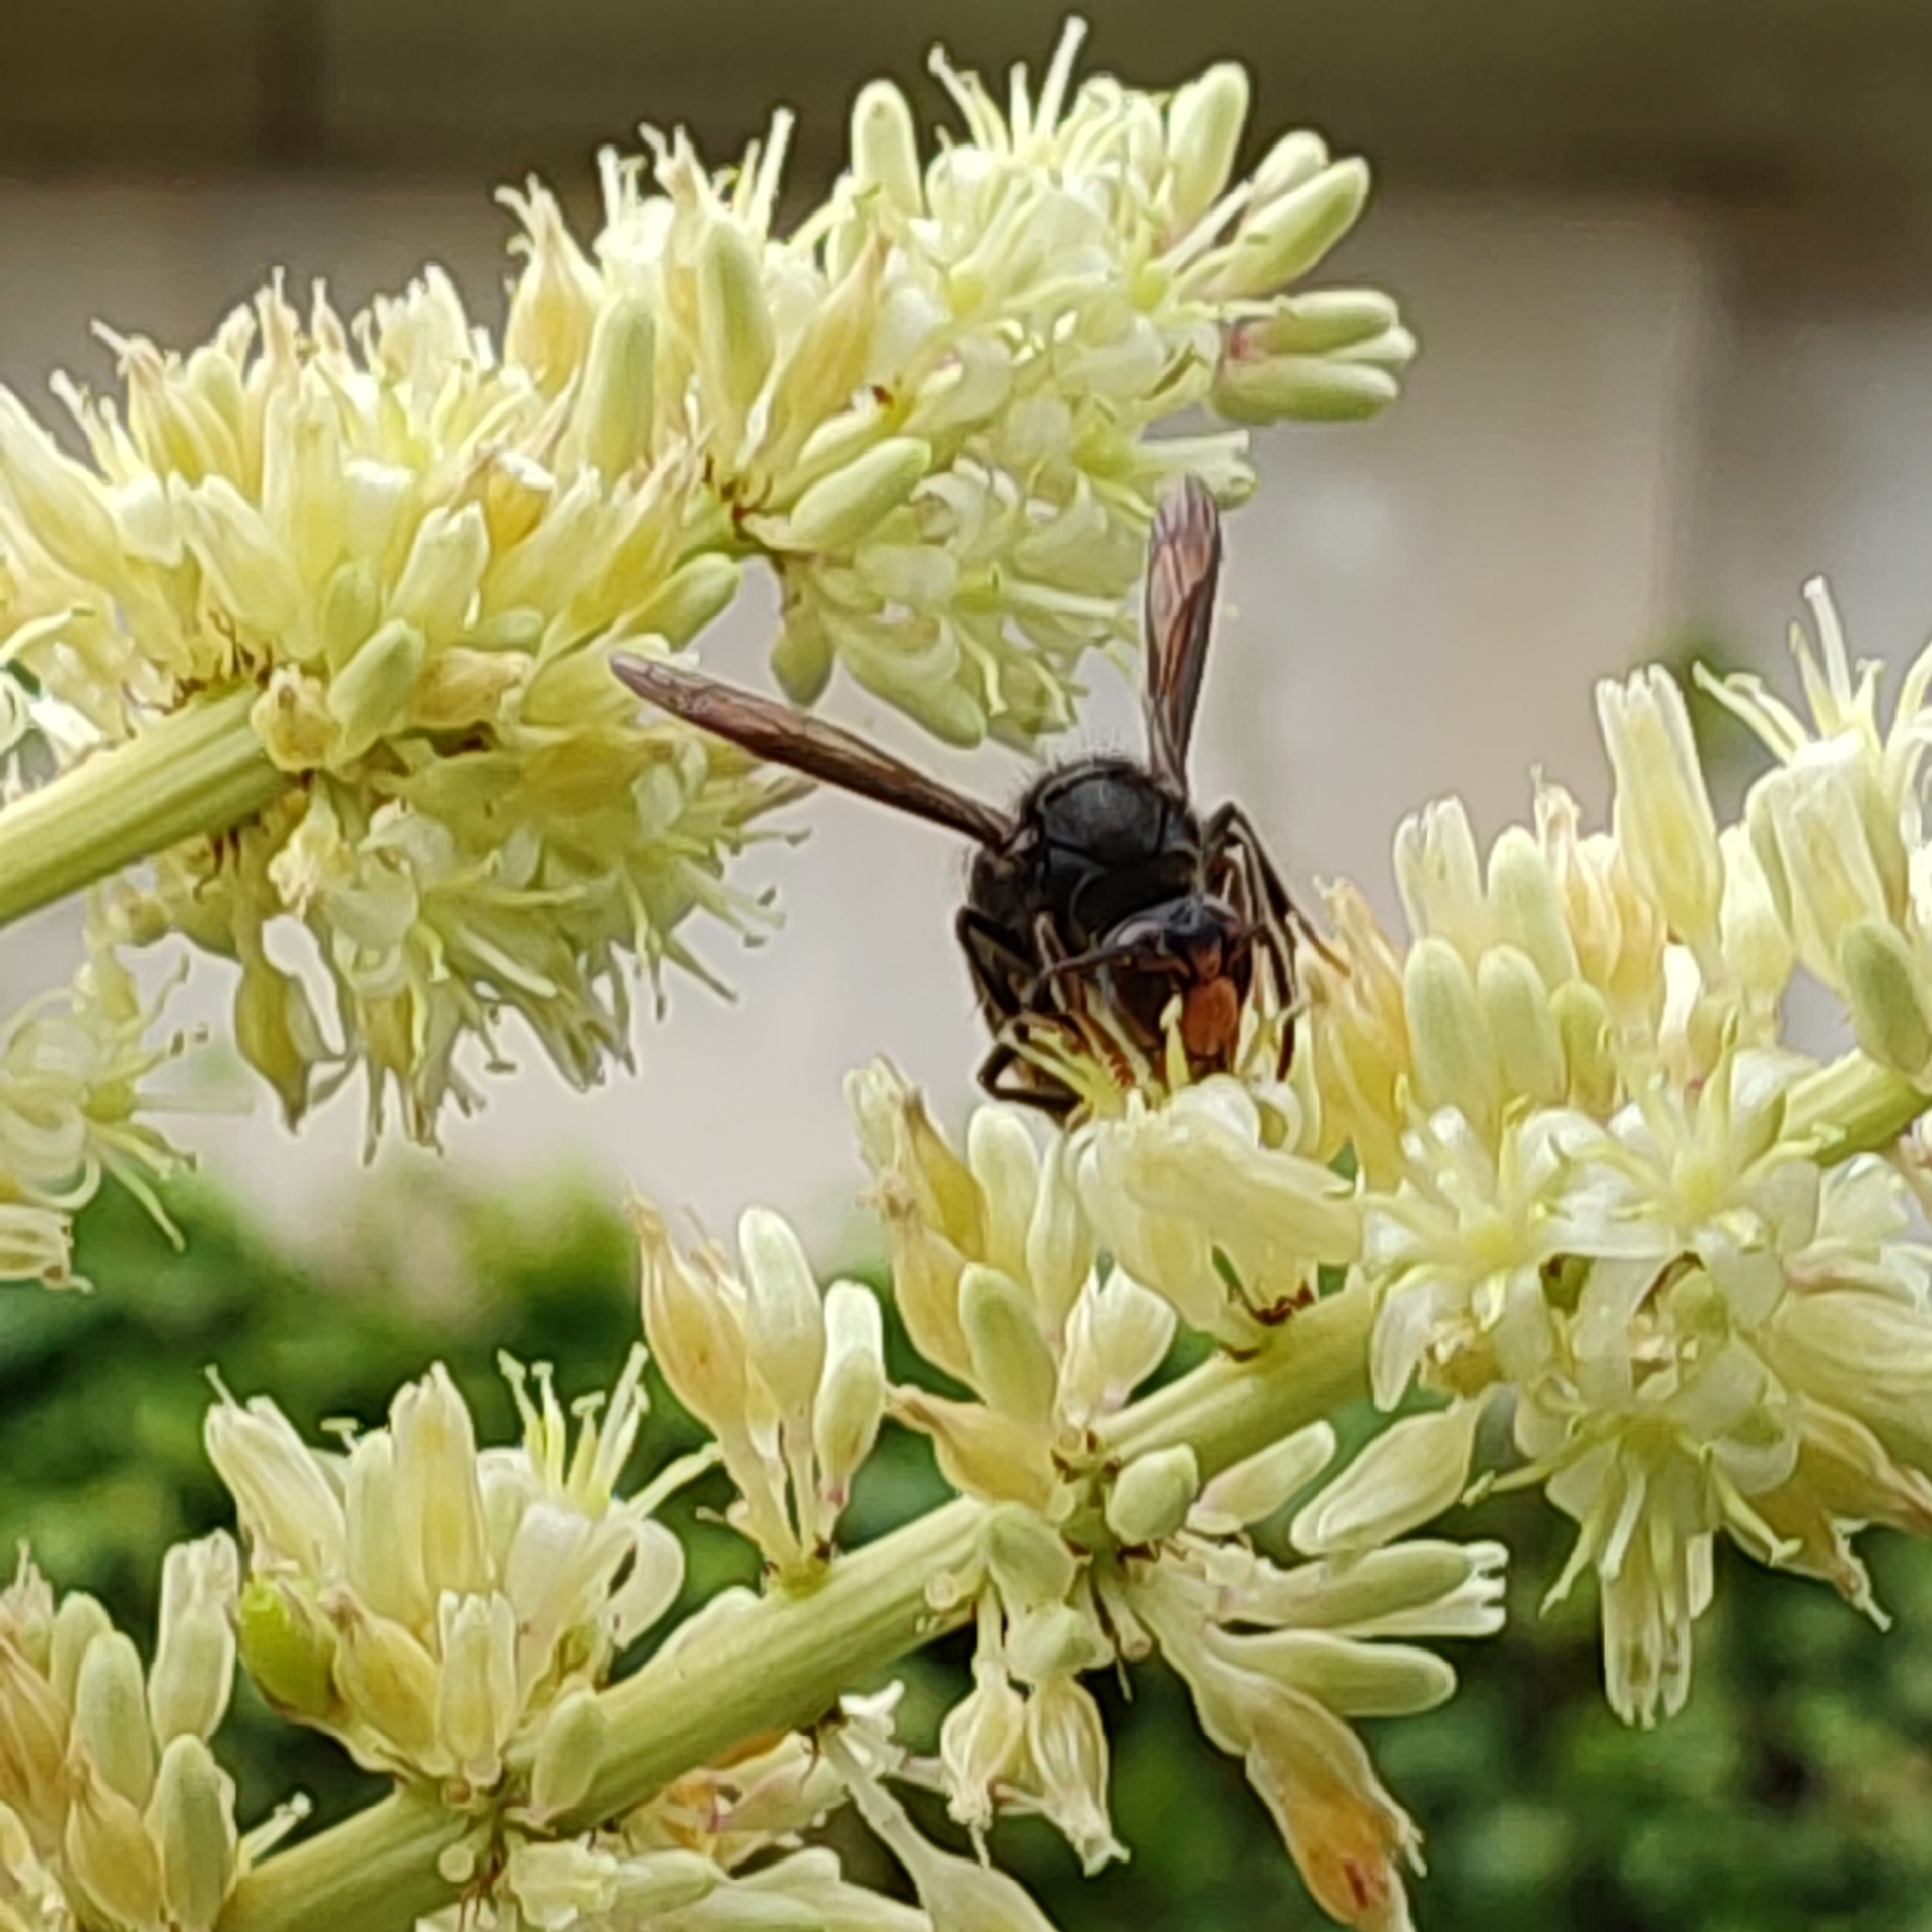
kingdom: Animalia
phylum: Arthropoda
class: Insecta
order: Hymenoptera
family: Vespidae
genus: Vespa
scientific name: Vespa velutina
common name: Asian hornet
